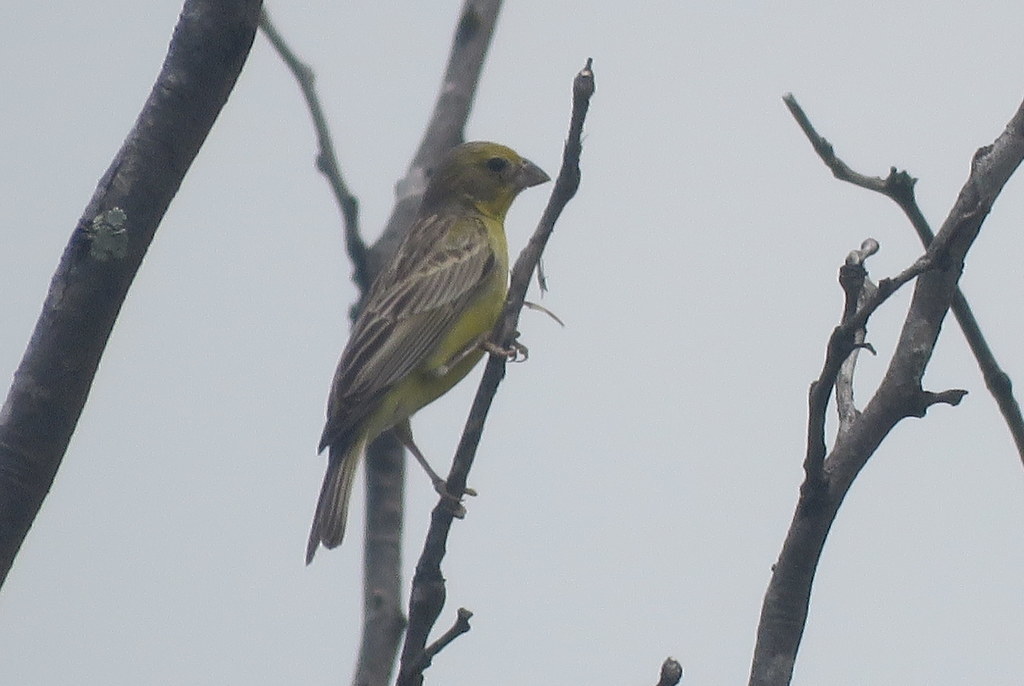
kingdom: Animalia
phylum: Chordata
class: Aves
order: Passeriformes
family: Thraupidae
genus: Sicalis
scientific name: Sicalis luteola
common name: Grassland yellow-finch
